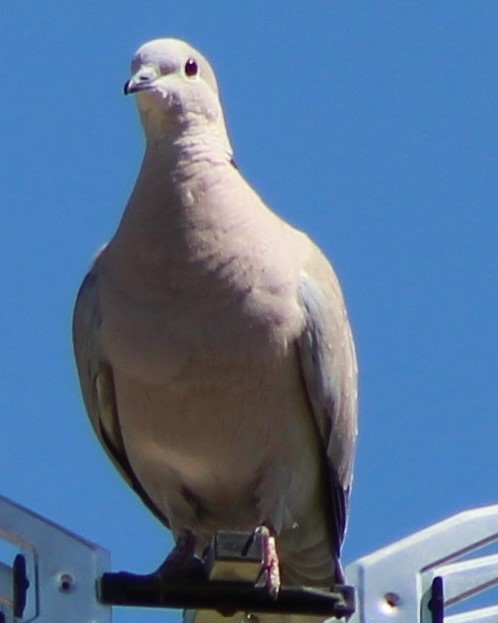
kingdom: Animalia
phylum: Chordata
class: Aves
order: Columbiformes
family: Columbidae
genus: Streptopelia
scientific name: Streptopelia decaocto
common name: Eurasian collared dove
